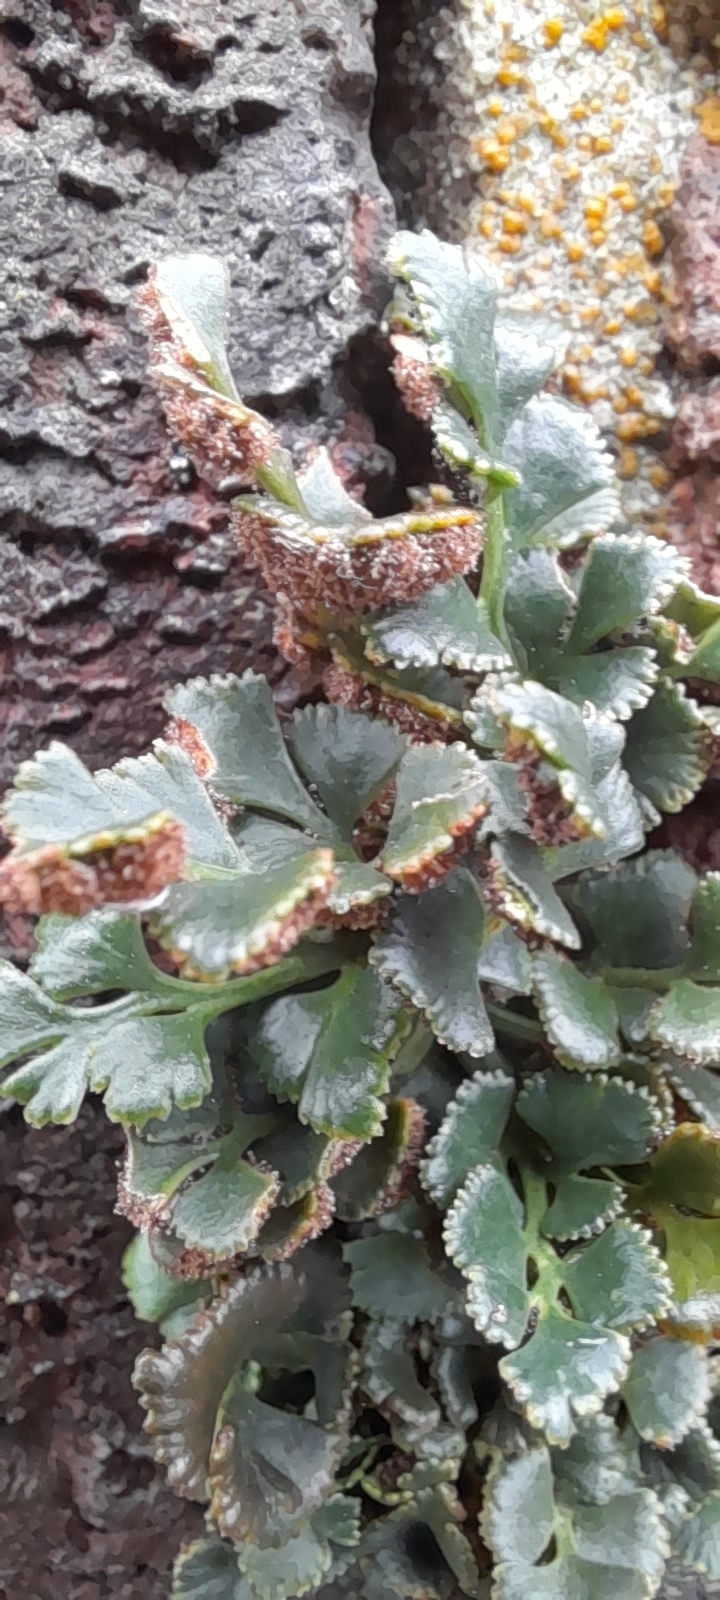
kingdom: Plantae
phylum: Tracheophyta
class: Polypodiopsida
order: Polypodiales
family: Aspleniaceae
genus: Asplenium
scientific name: Asplenium ruta-muraria
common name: Wall-rue
